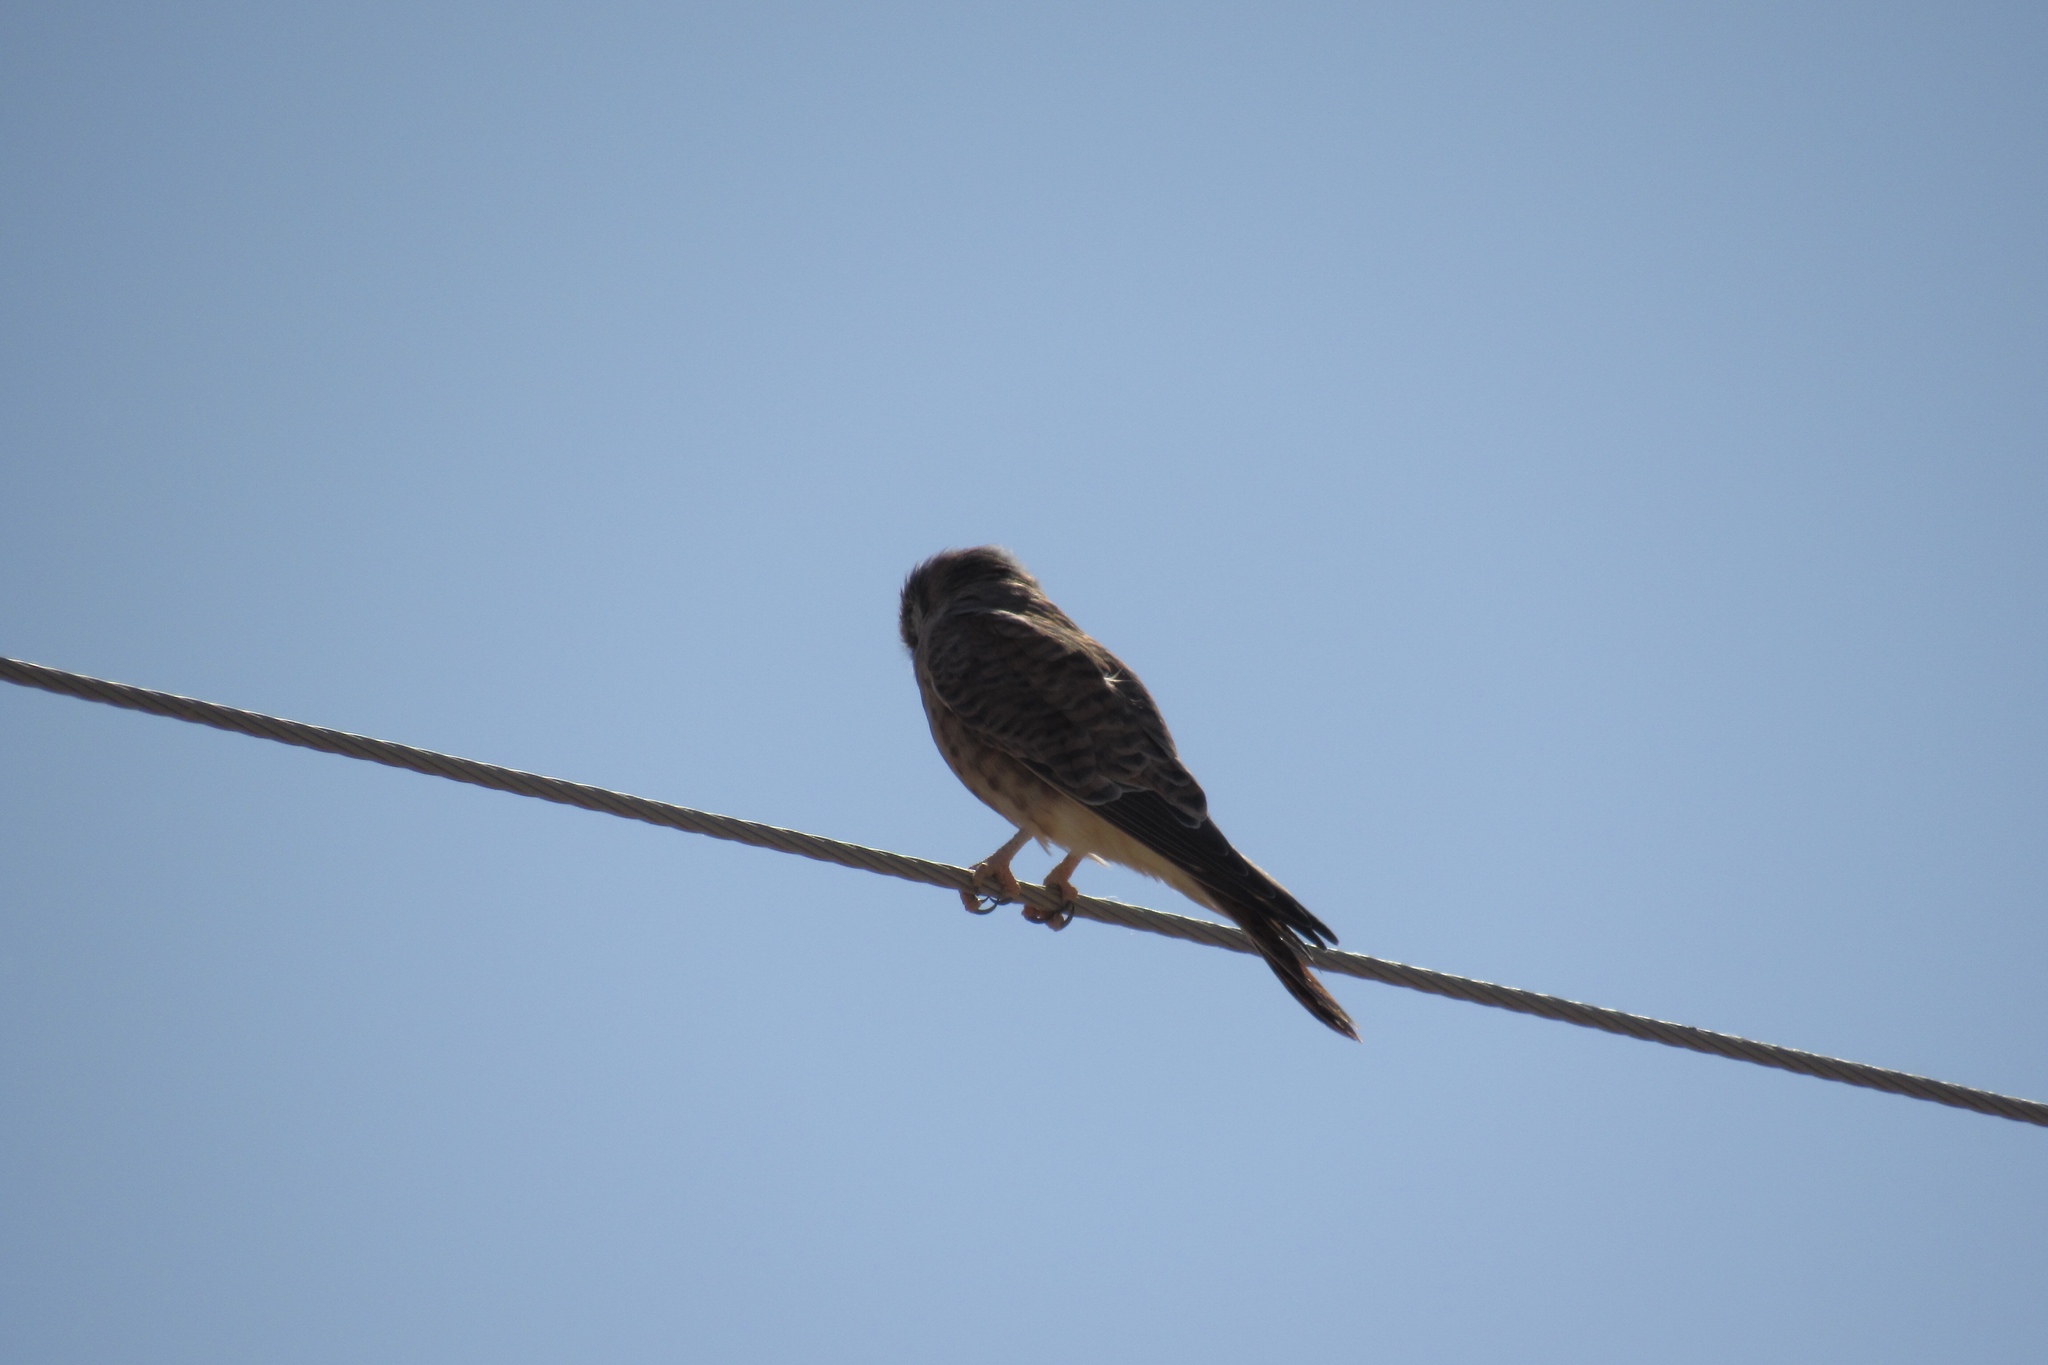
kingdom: Animalia
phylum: Chordata
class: Aves
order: Falconiformes
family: Falconidae
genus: Falco
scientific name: Falco sparverius
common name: American kestrel
